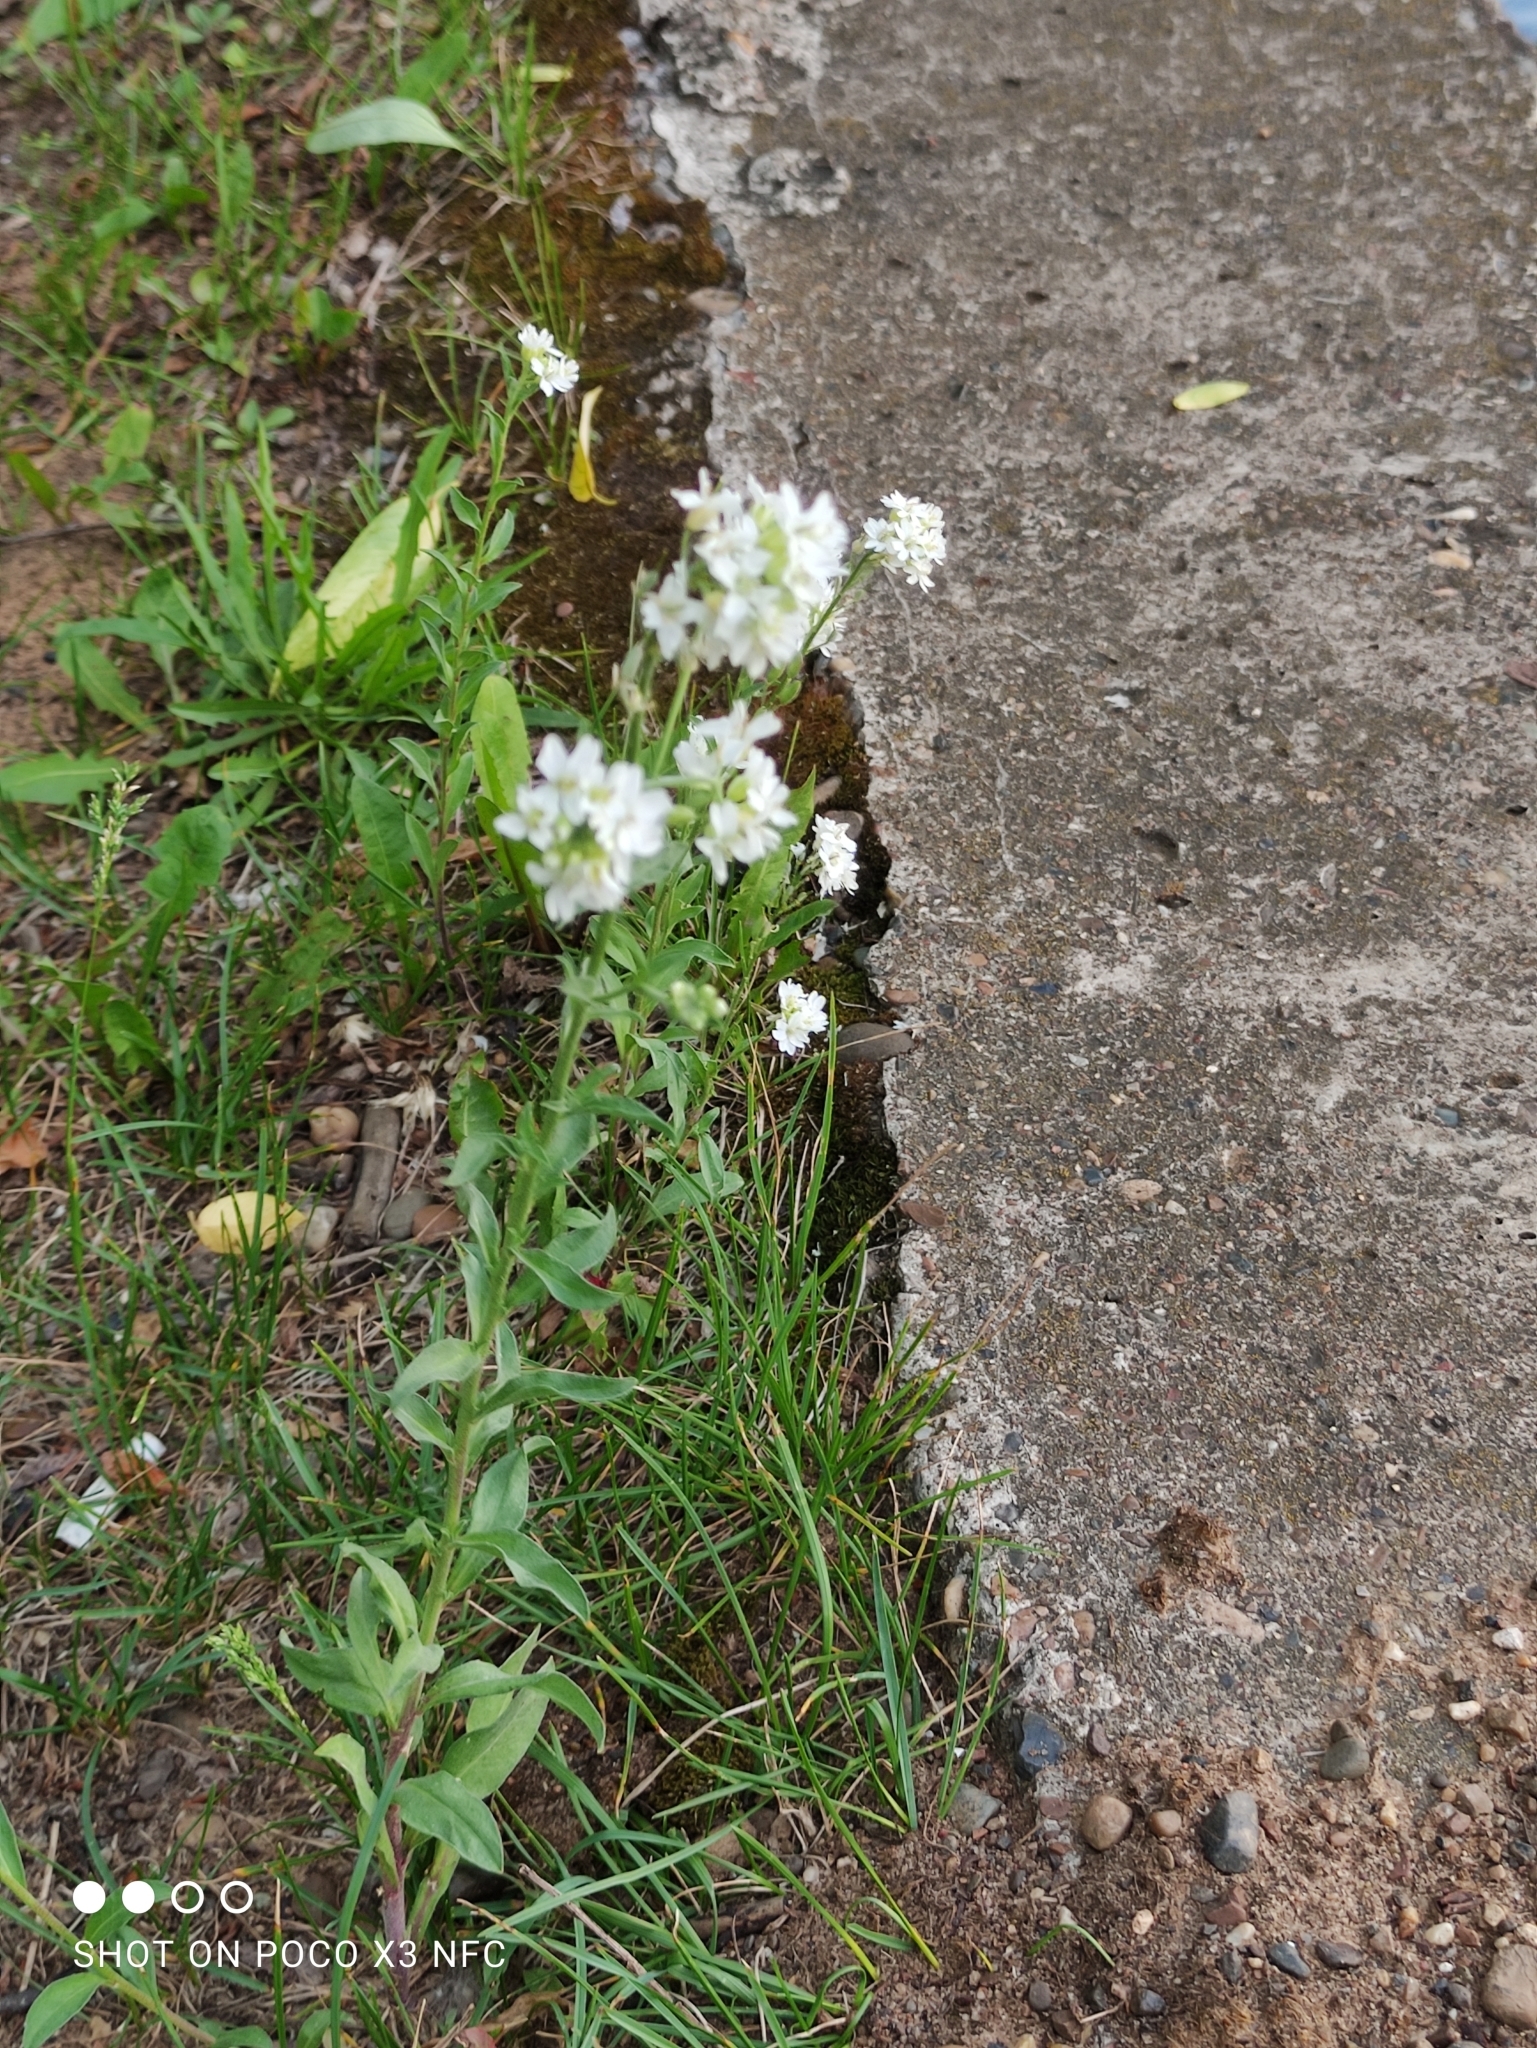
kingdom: Plantae
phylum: Tracheophyta
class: Magnoliopsida
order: Brassicales
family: Brassicaceae
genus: Berteroa
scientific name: Berteroa incana
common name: Hoary alison
